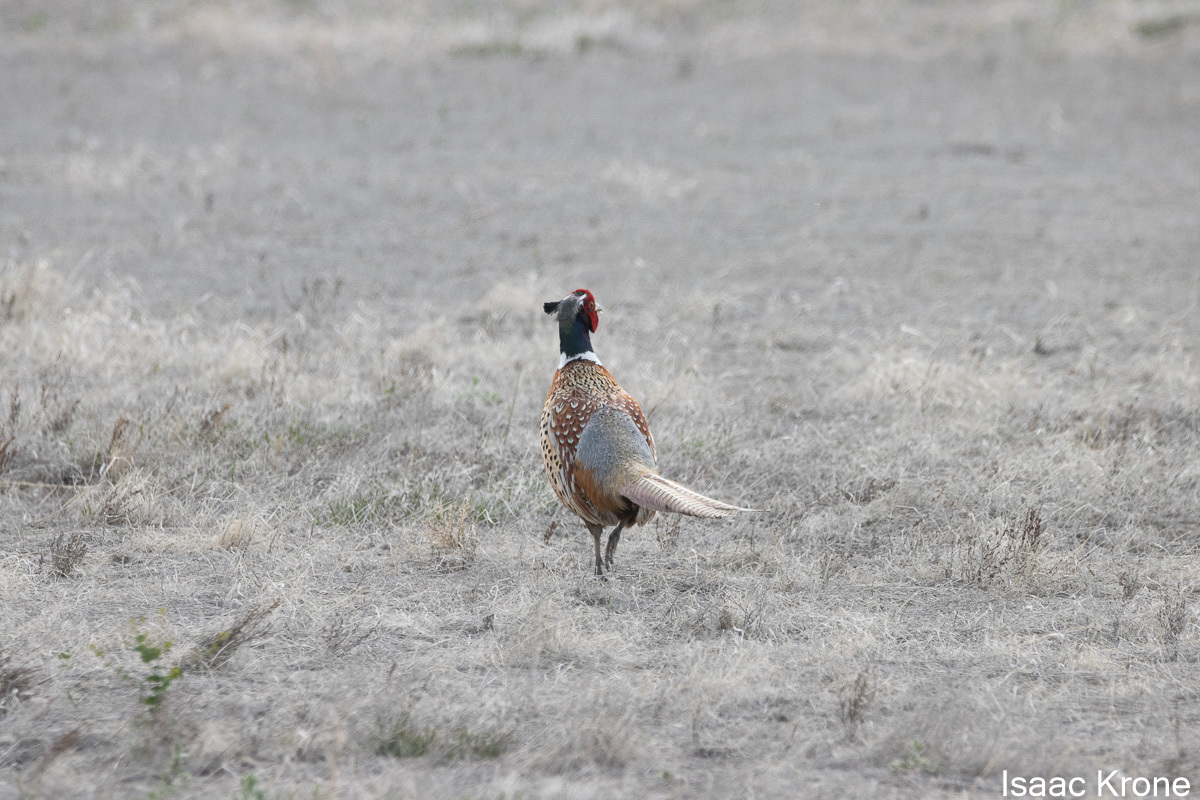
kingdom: Animalia
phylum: Chordata
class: Aves
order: Galliformes
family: Phasianidae
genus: Phasianus
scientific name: Phasianus colchicus
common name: Common pheasant
